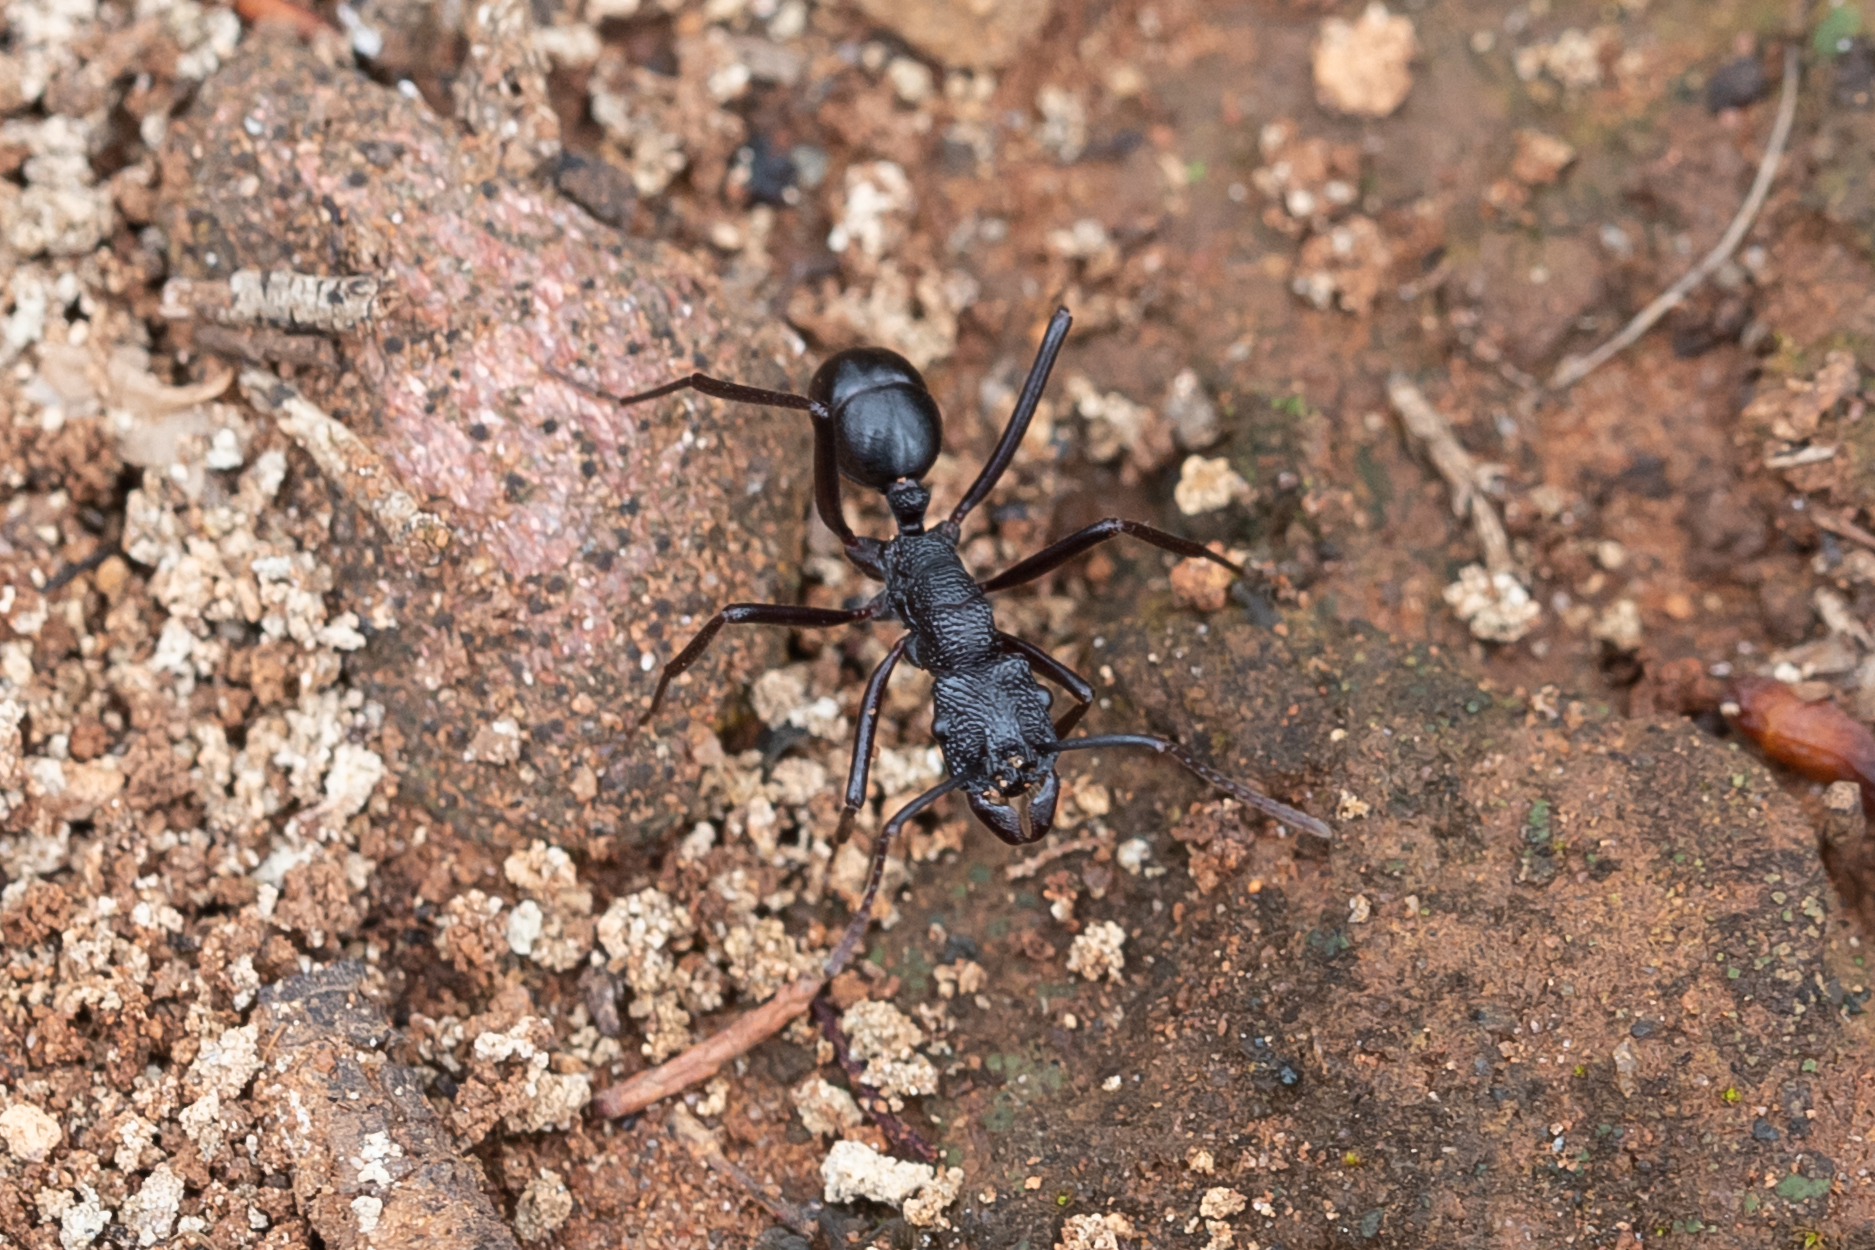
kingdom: Animalia
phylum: Arthropoda
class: Insecta
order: Hymenoptera
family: Formicidae
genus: Rhytidoponera
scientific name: Rhytidoponera mayri
